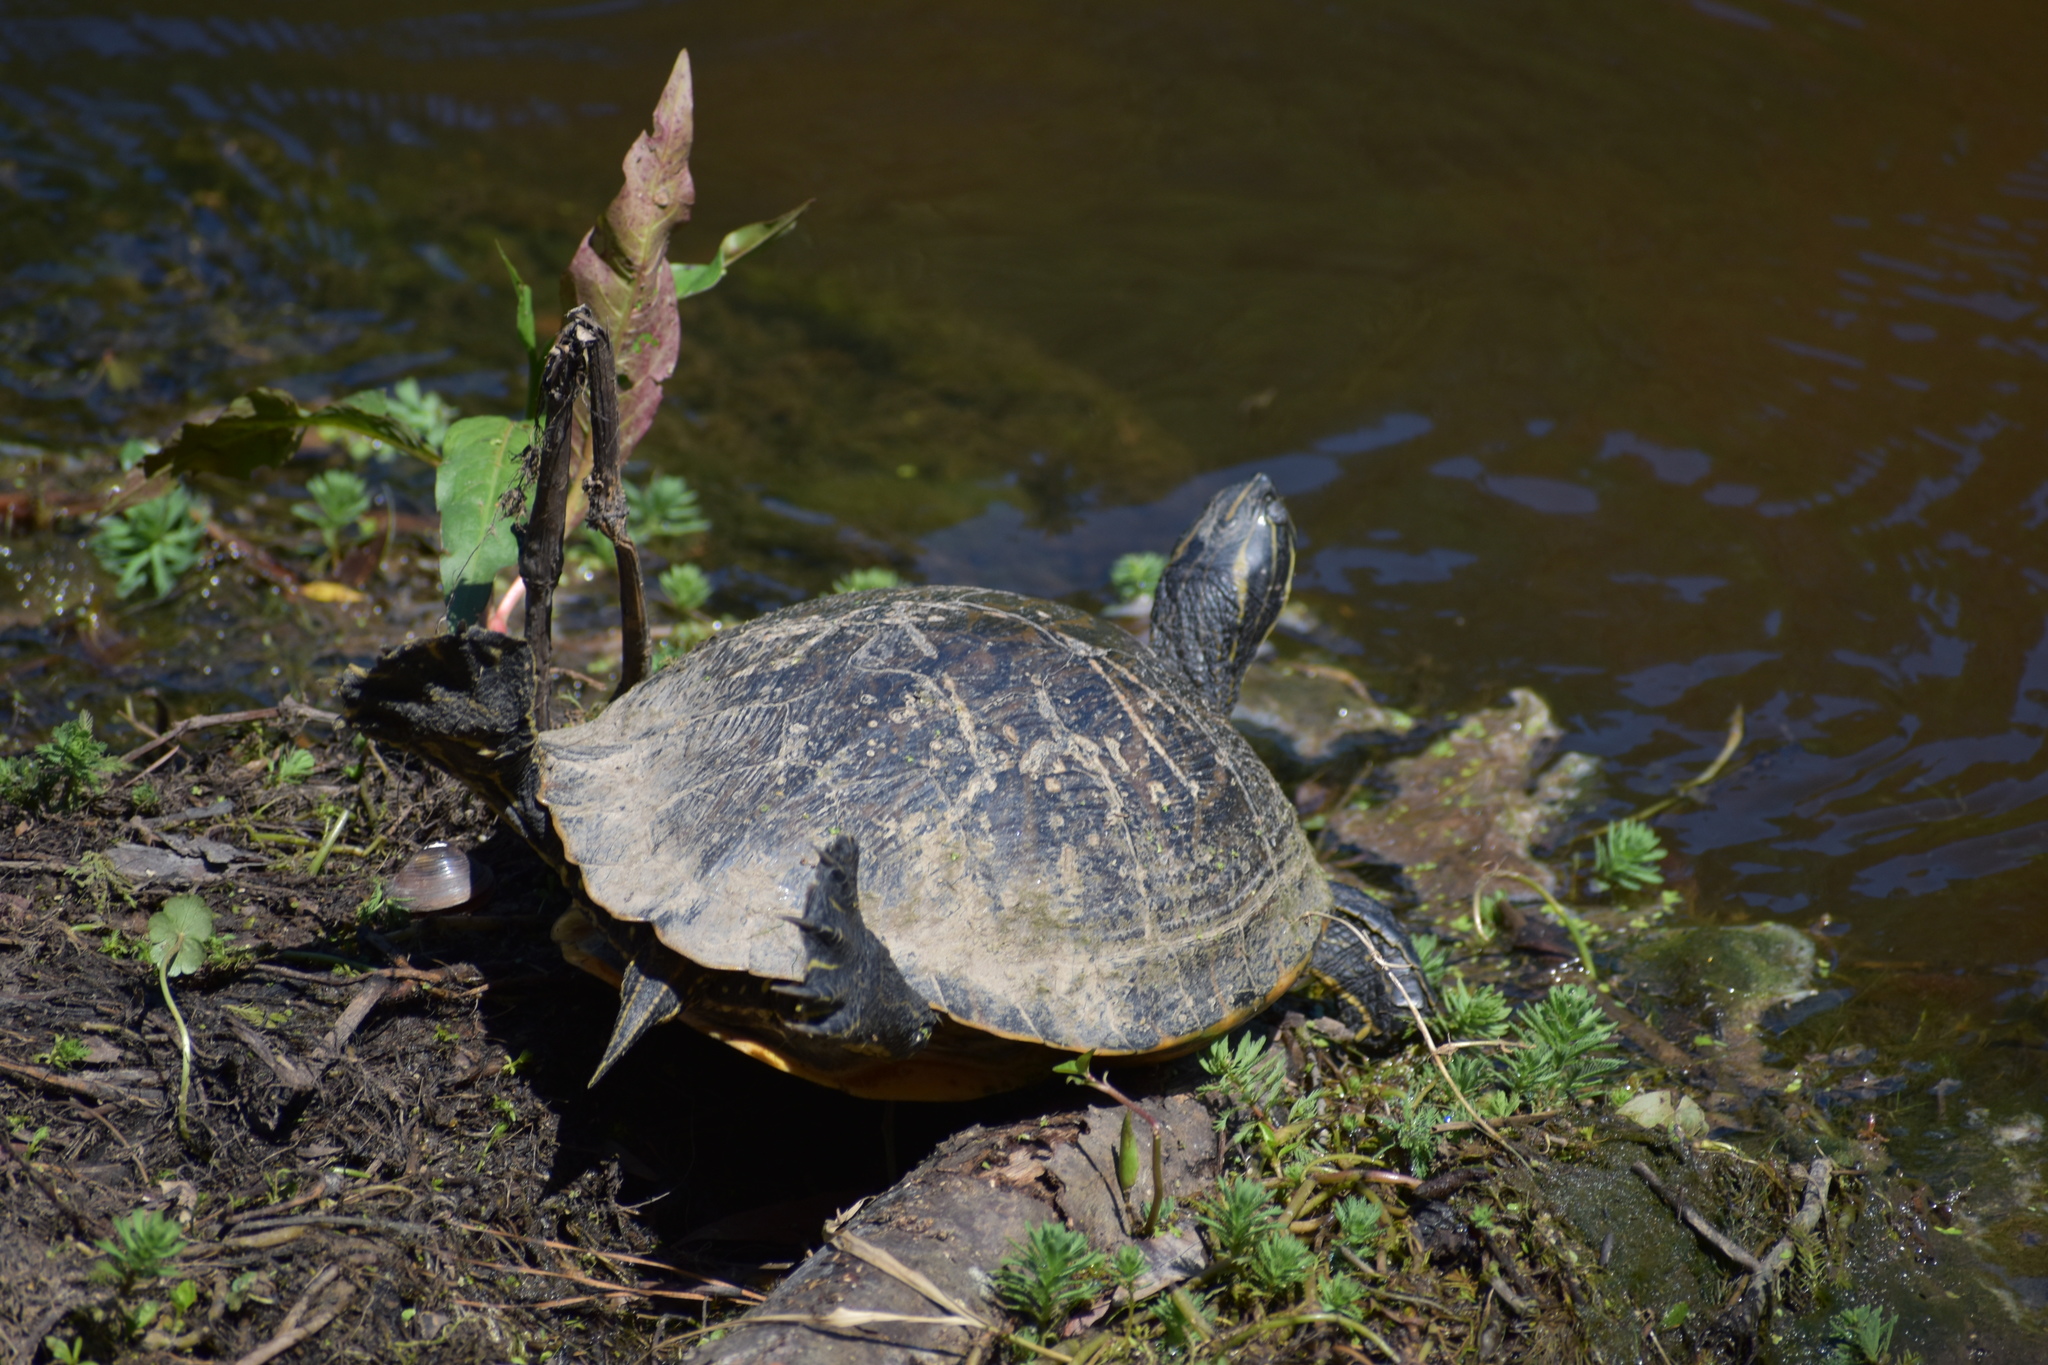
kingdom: Animalia
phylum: Chordata
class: Testudines
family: Emydidae
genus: Trachemys
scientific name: Trachemys scripta
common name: Slider
